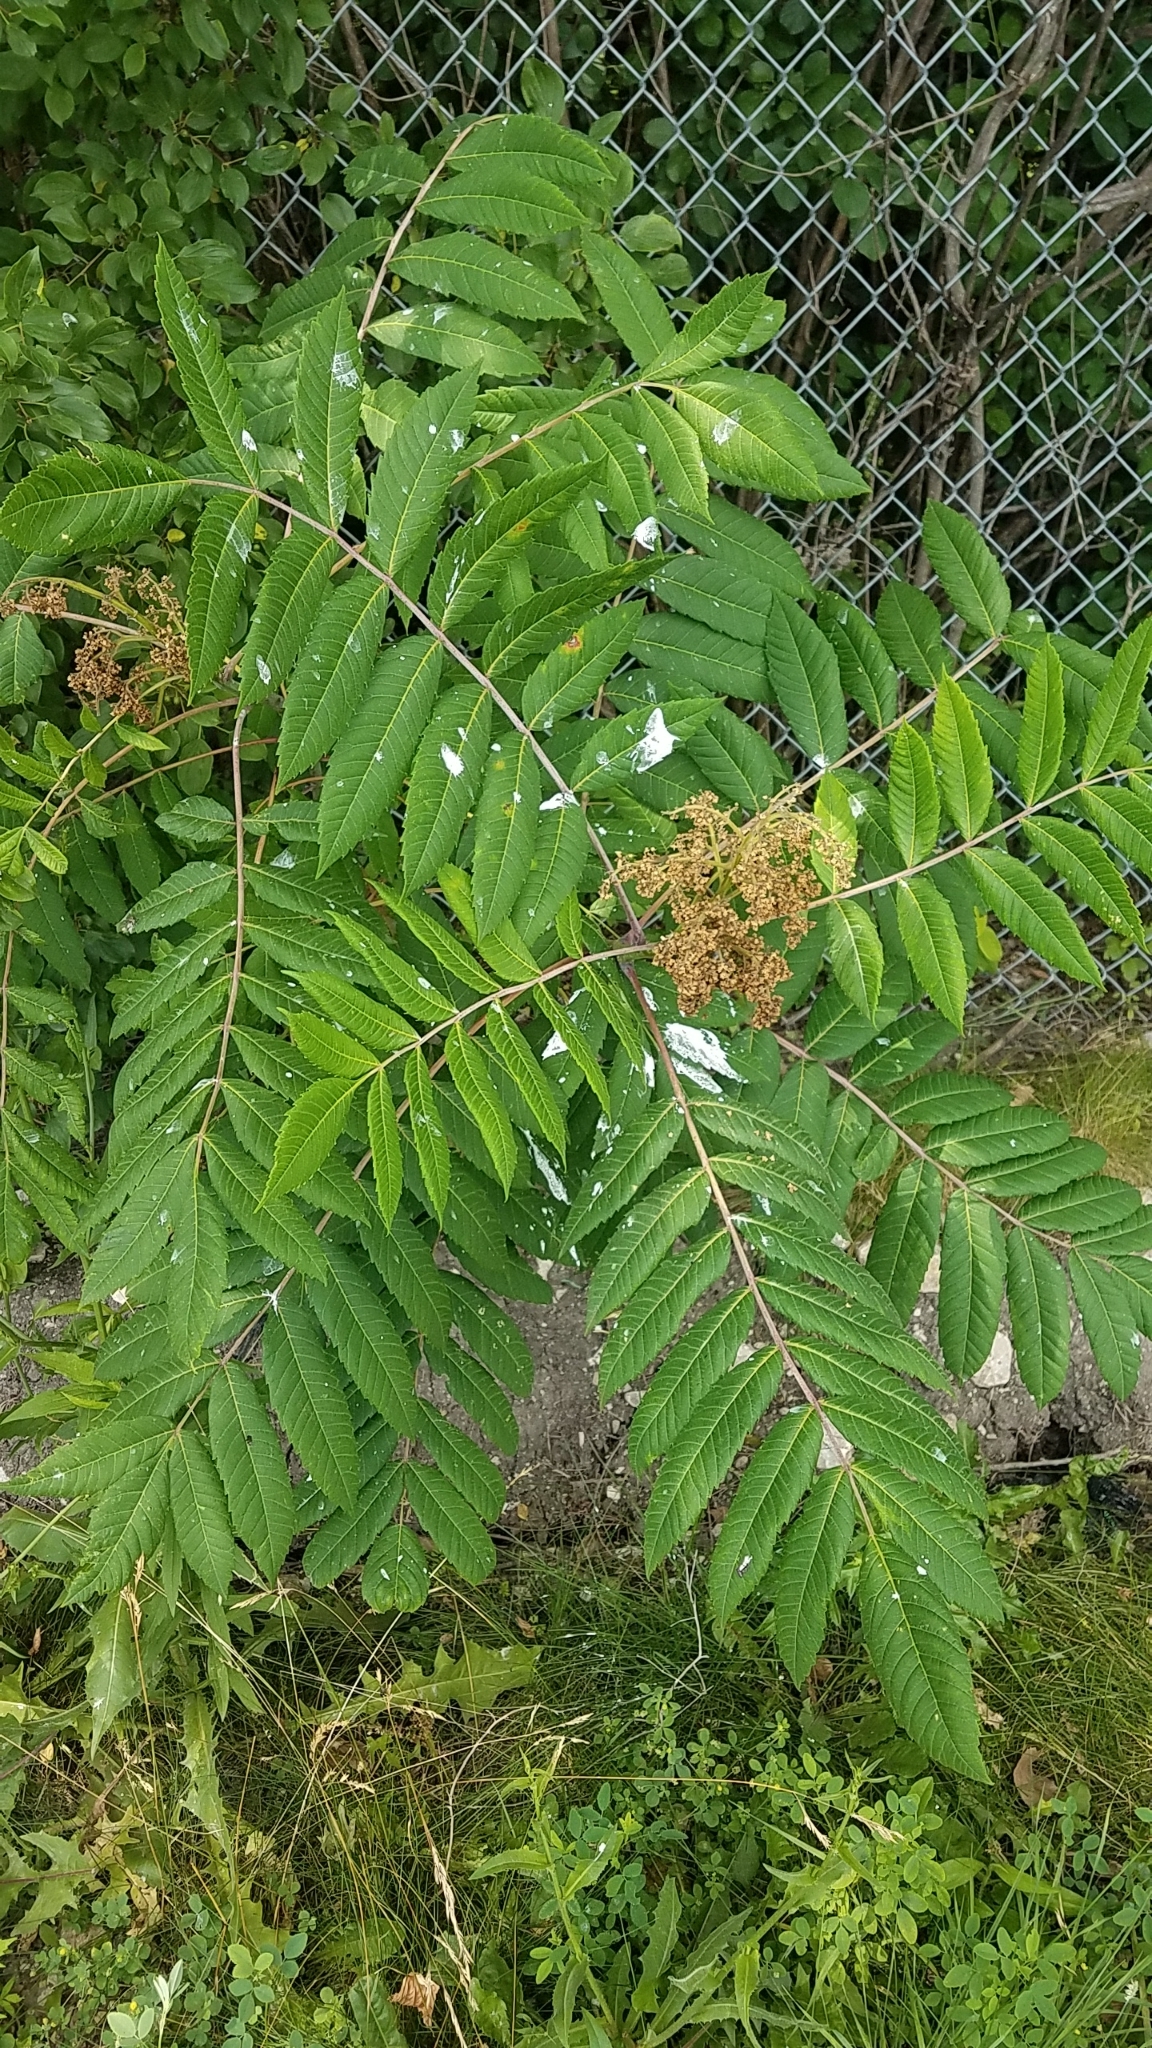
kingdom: Plantae
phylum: Tracheophyta
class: Magnoliopsida
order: Sapindales
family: Anacardiaceae
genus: Rhus
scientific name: Rhus glabra
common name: Scarlet sumac
